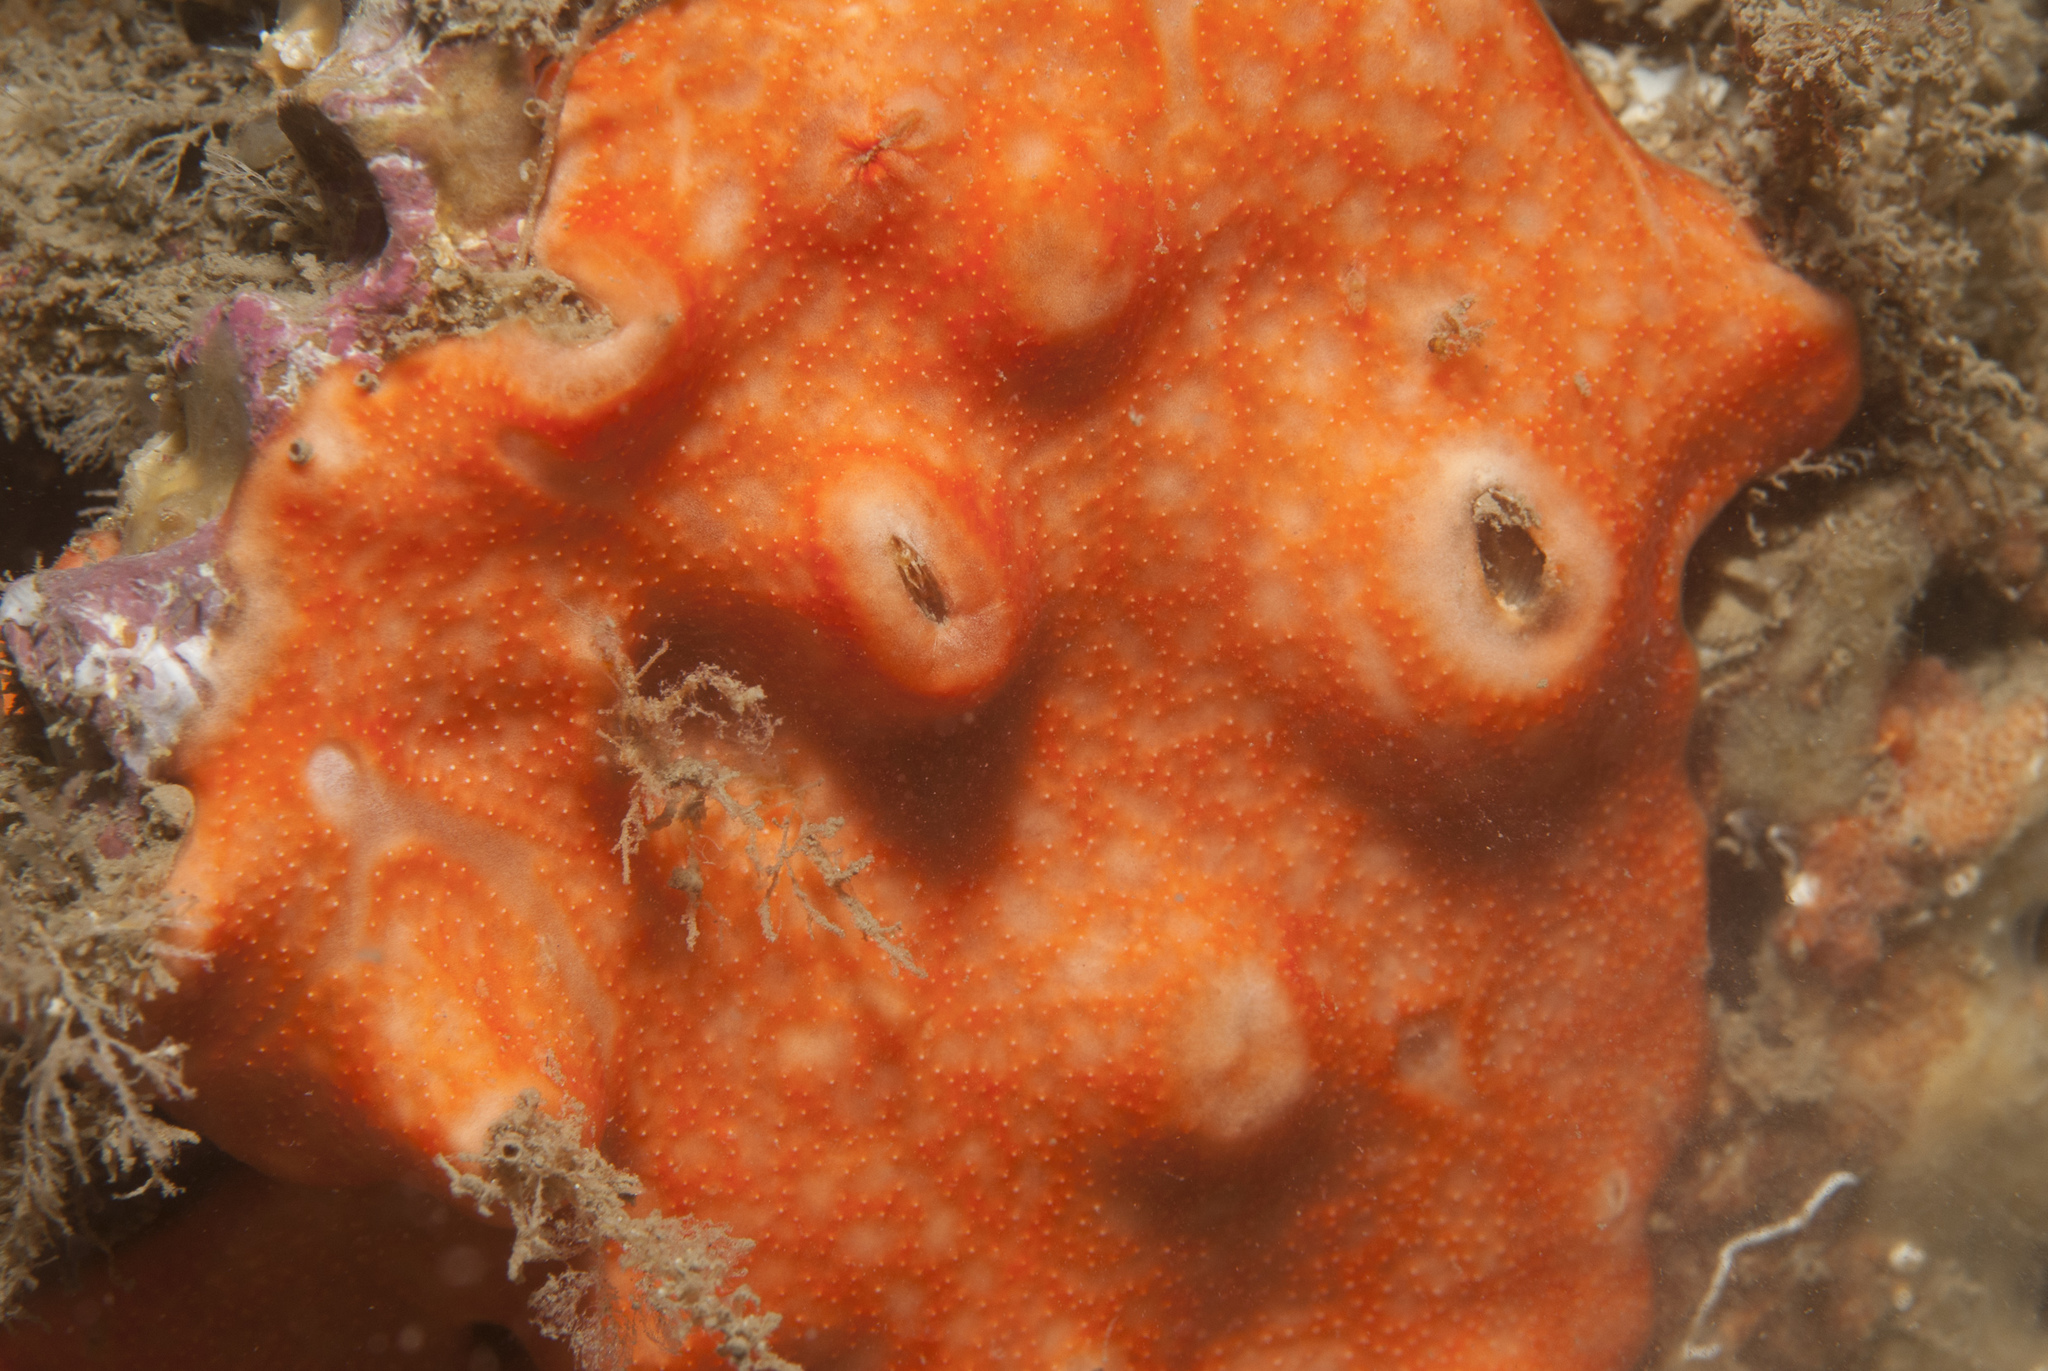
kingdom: Animalia
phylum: Chordata
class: Ascidiacea
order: Aplousobranchia
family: Didemnidae
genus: Didemnum
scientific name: Didemnum pseudofulgens
